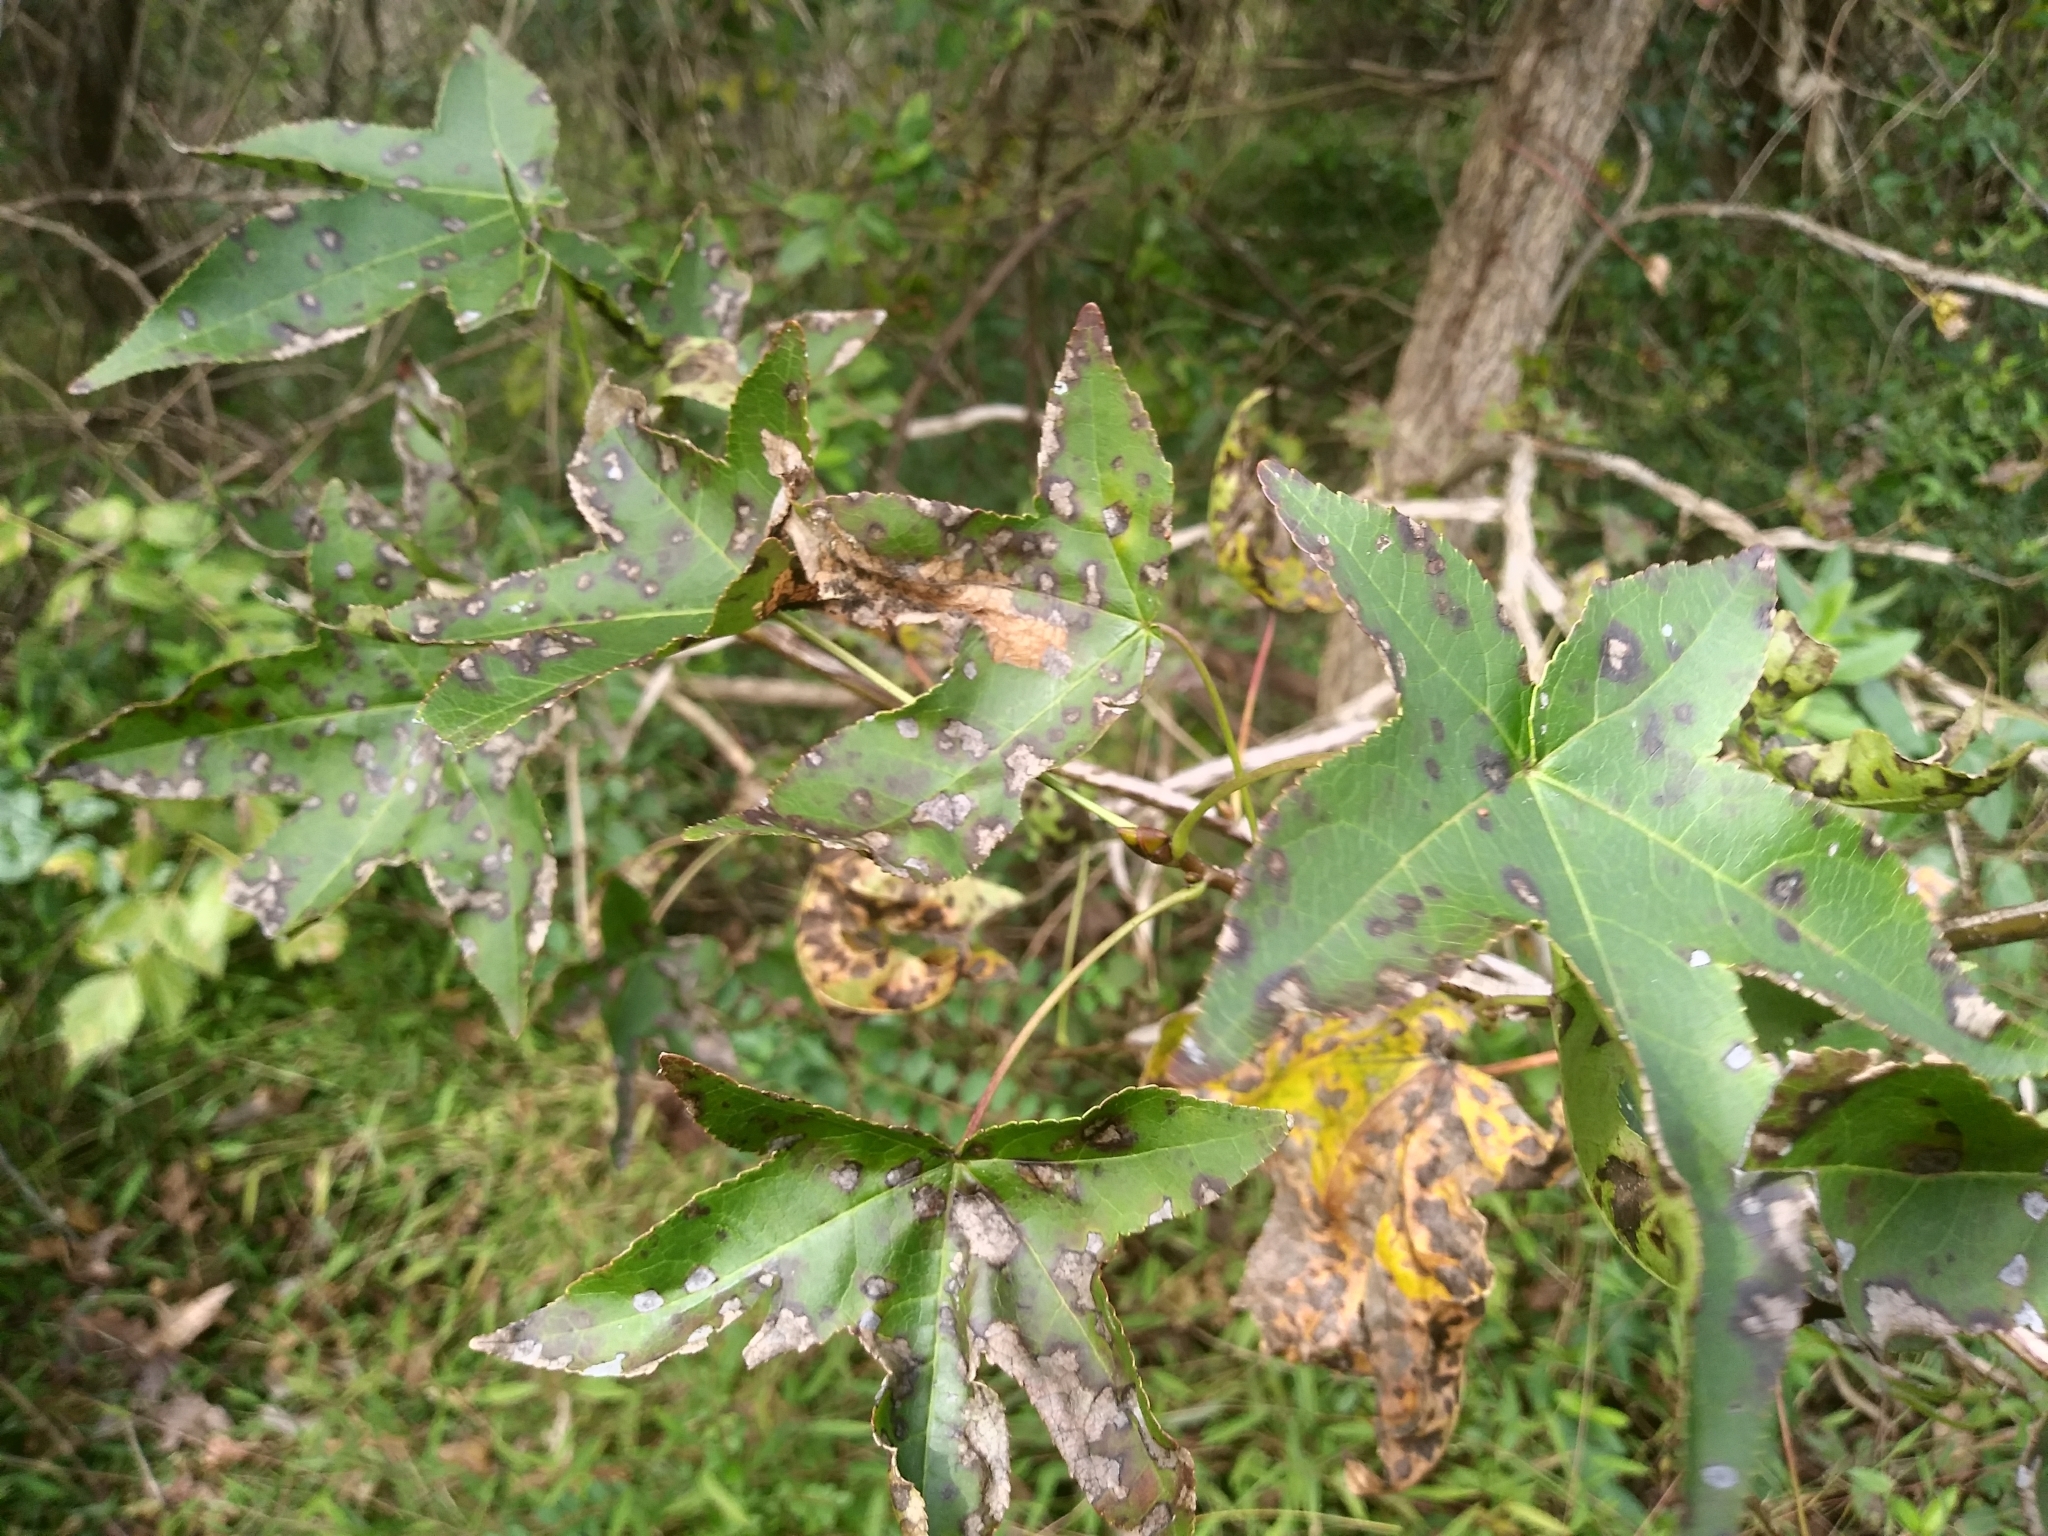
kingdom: Plantae
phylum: Tracheophyta
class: Magnoliopsida
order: Saxifragales
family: Altingiaceae
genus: Liquidambar
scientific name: Liquidambar styraciflua
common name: Sweet gum
